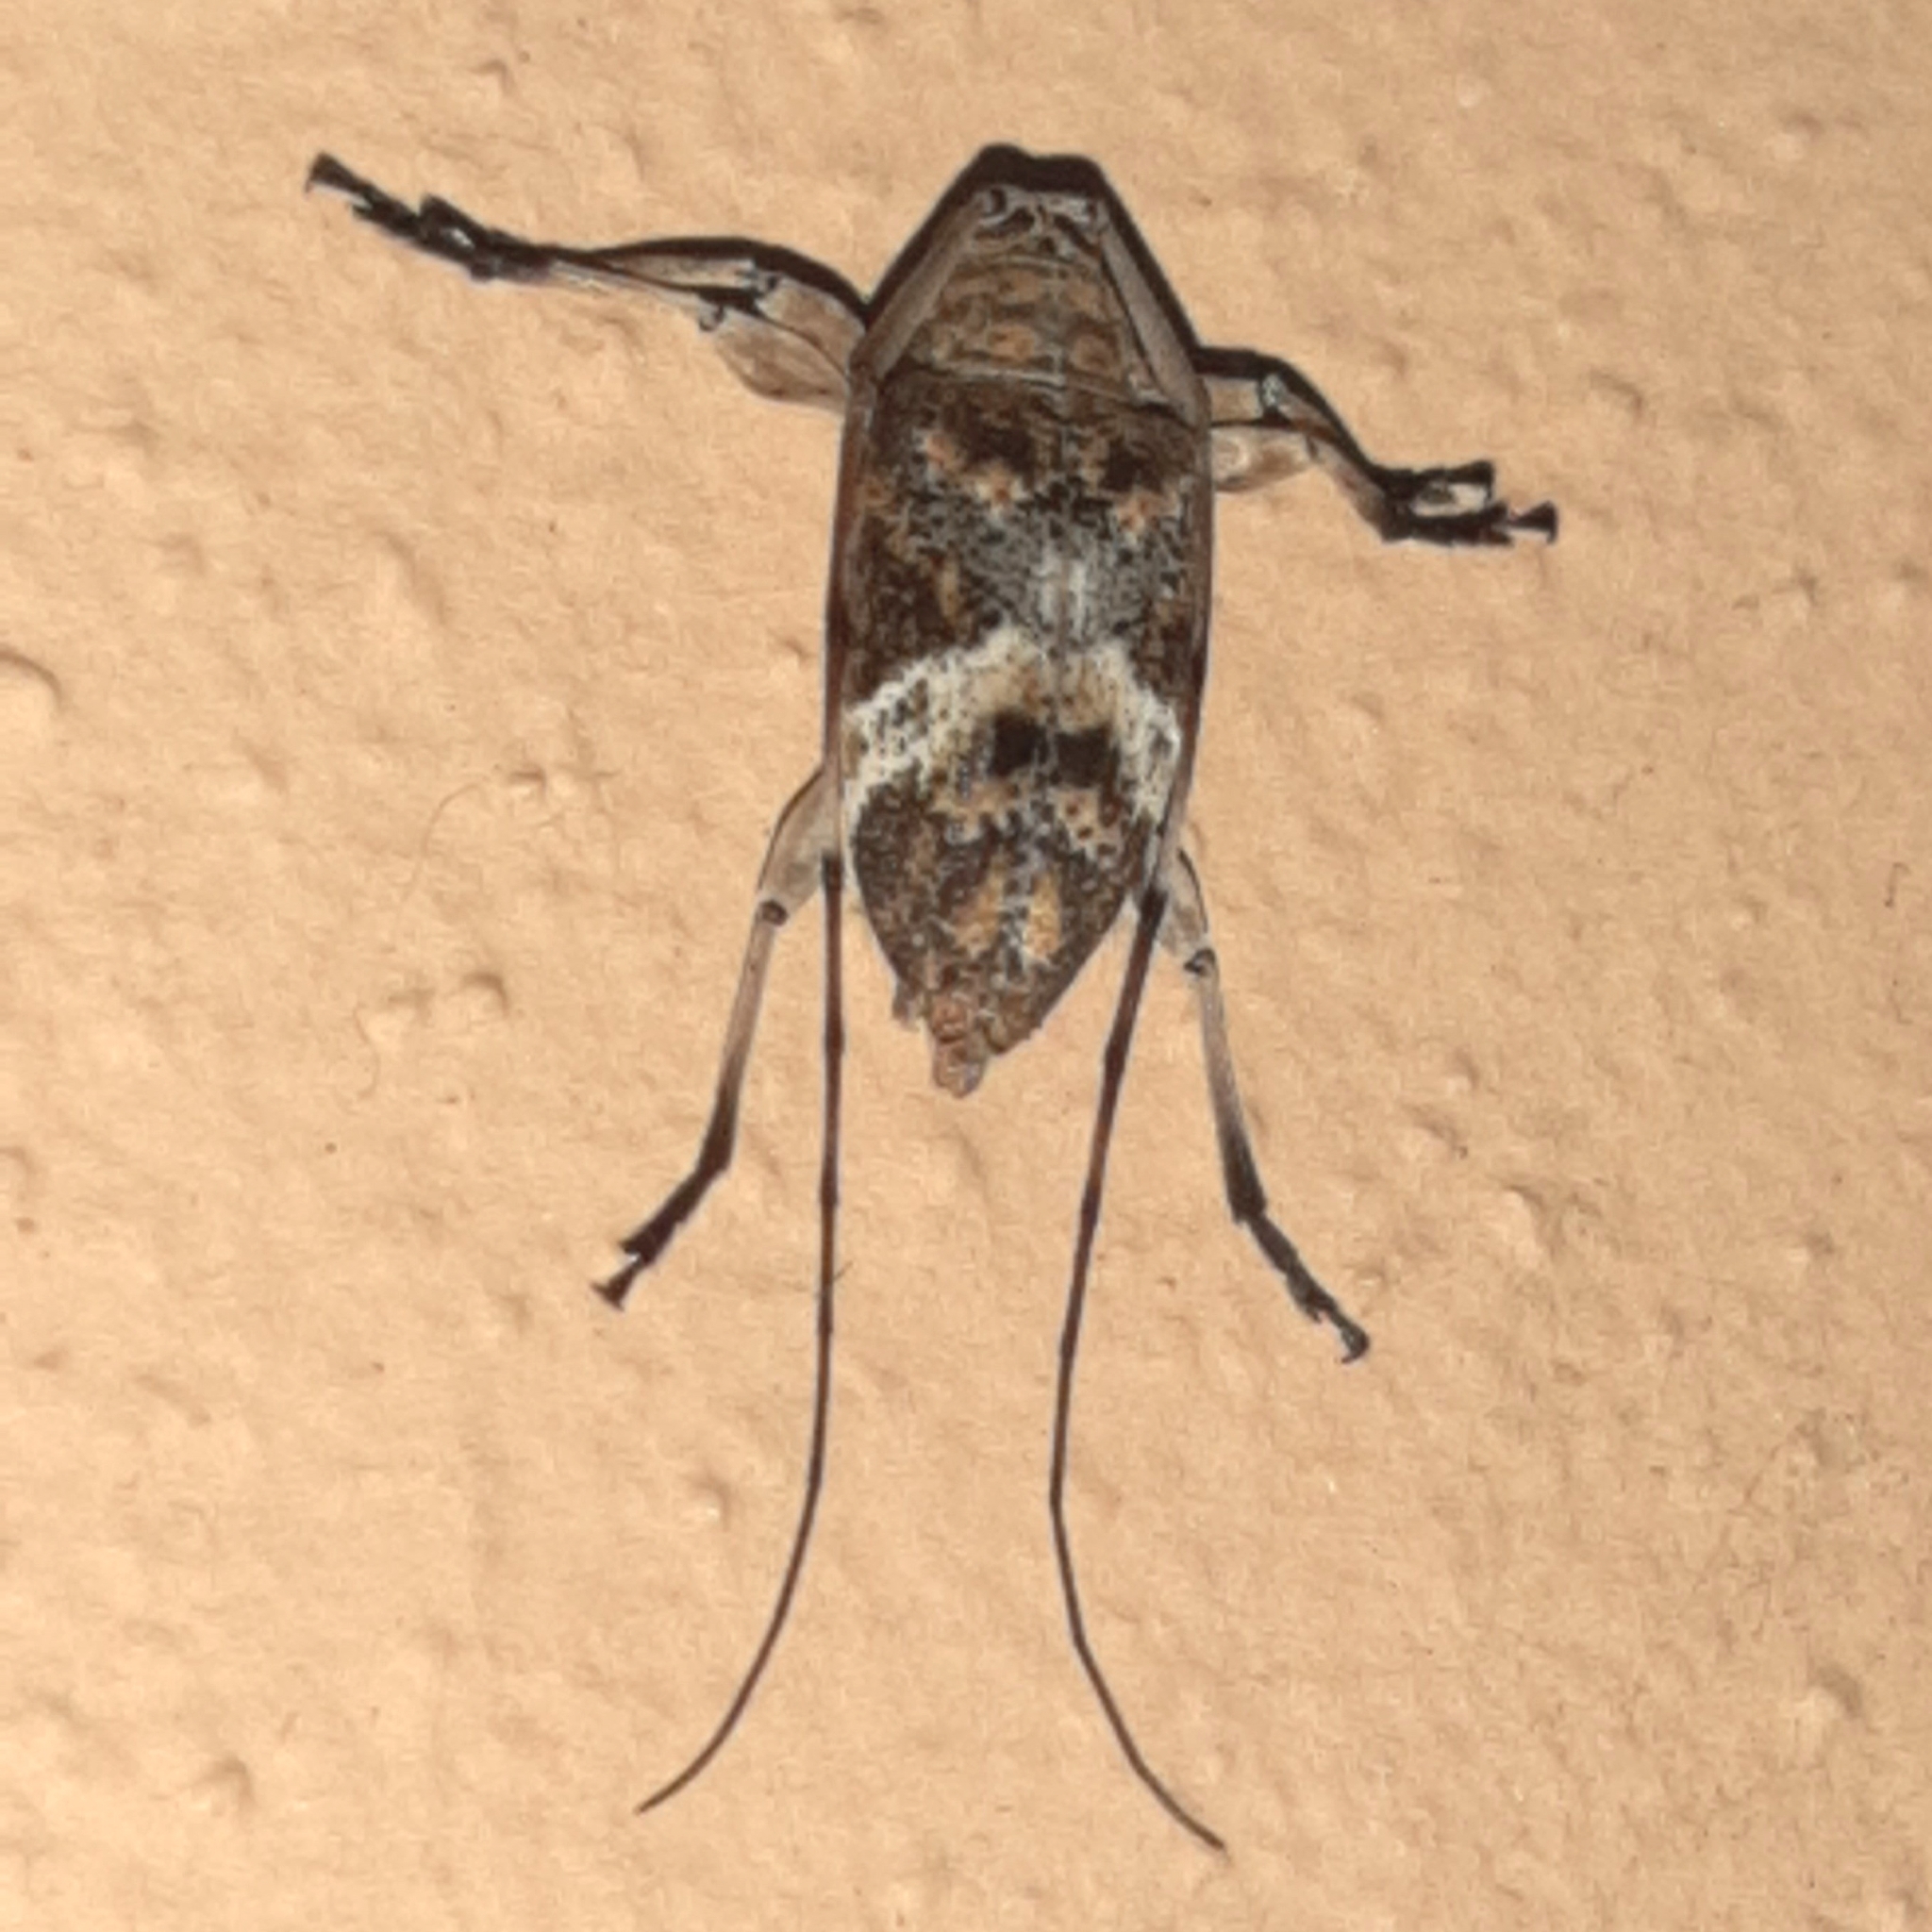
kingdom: Animalia
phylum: Arthropoda
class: Insecta
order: Coleoptera
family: Cerambycidae
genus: Atrypanius
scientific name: Atrypanius implexus
